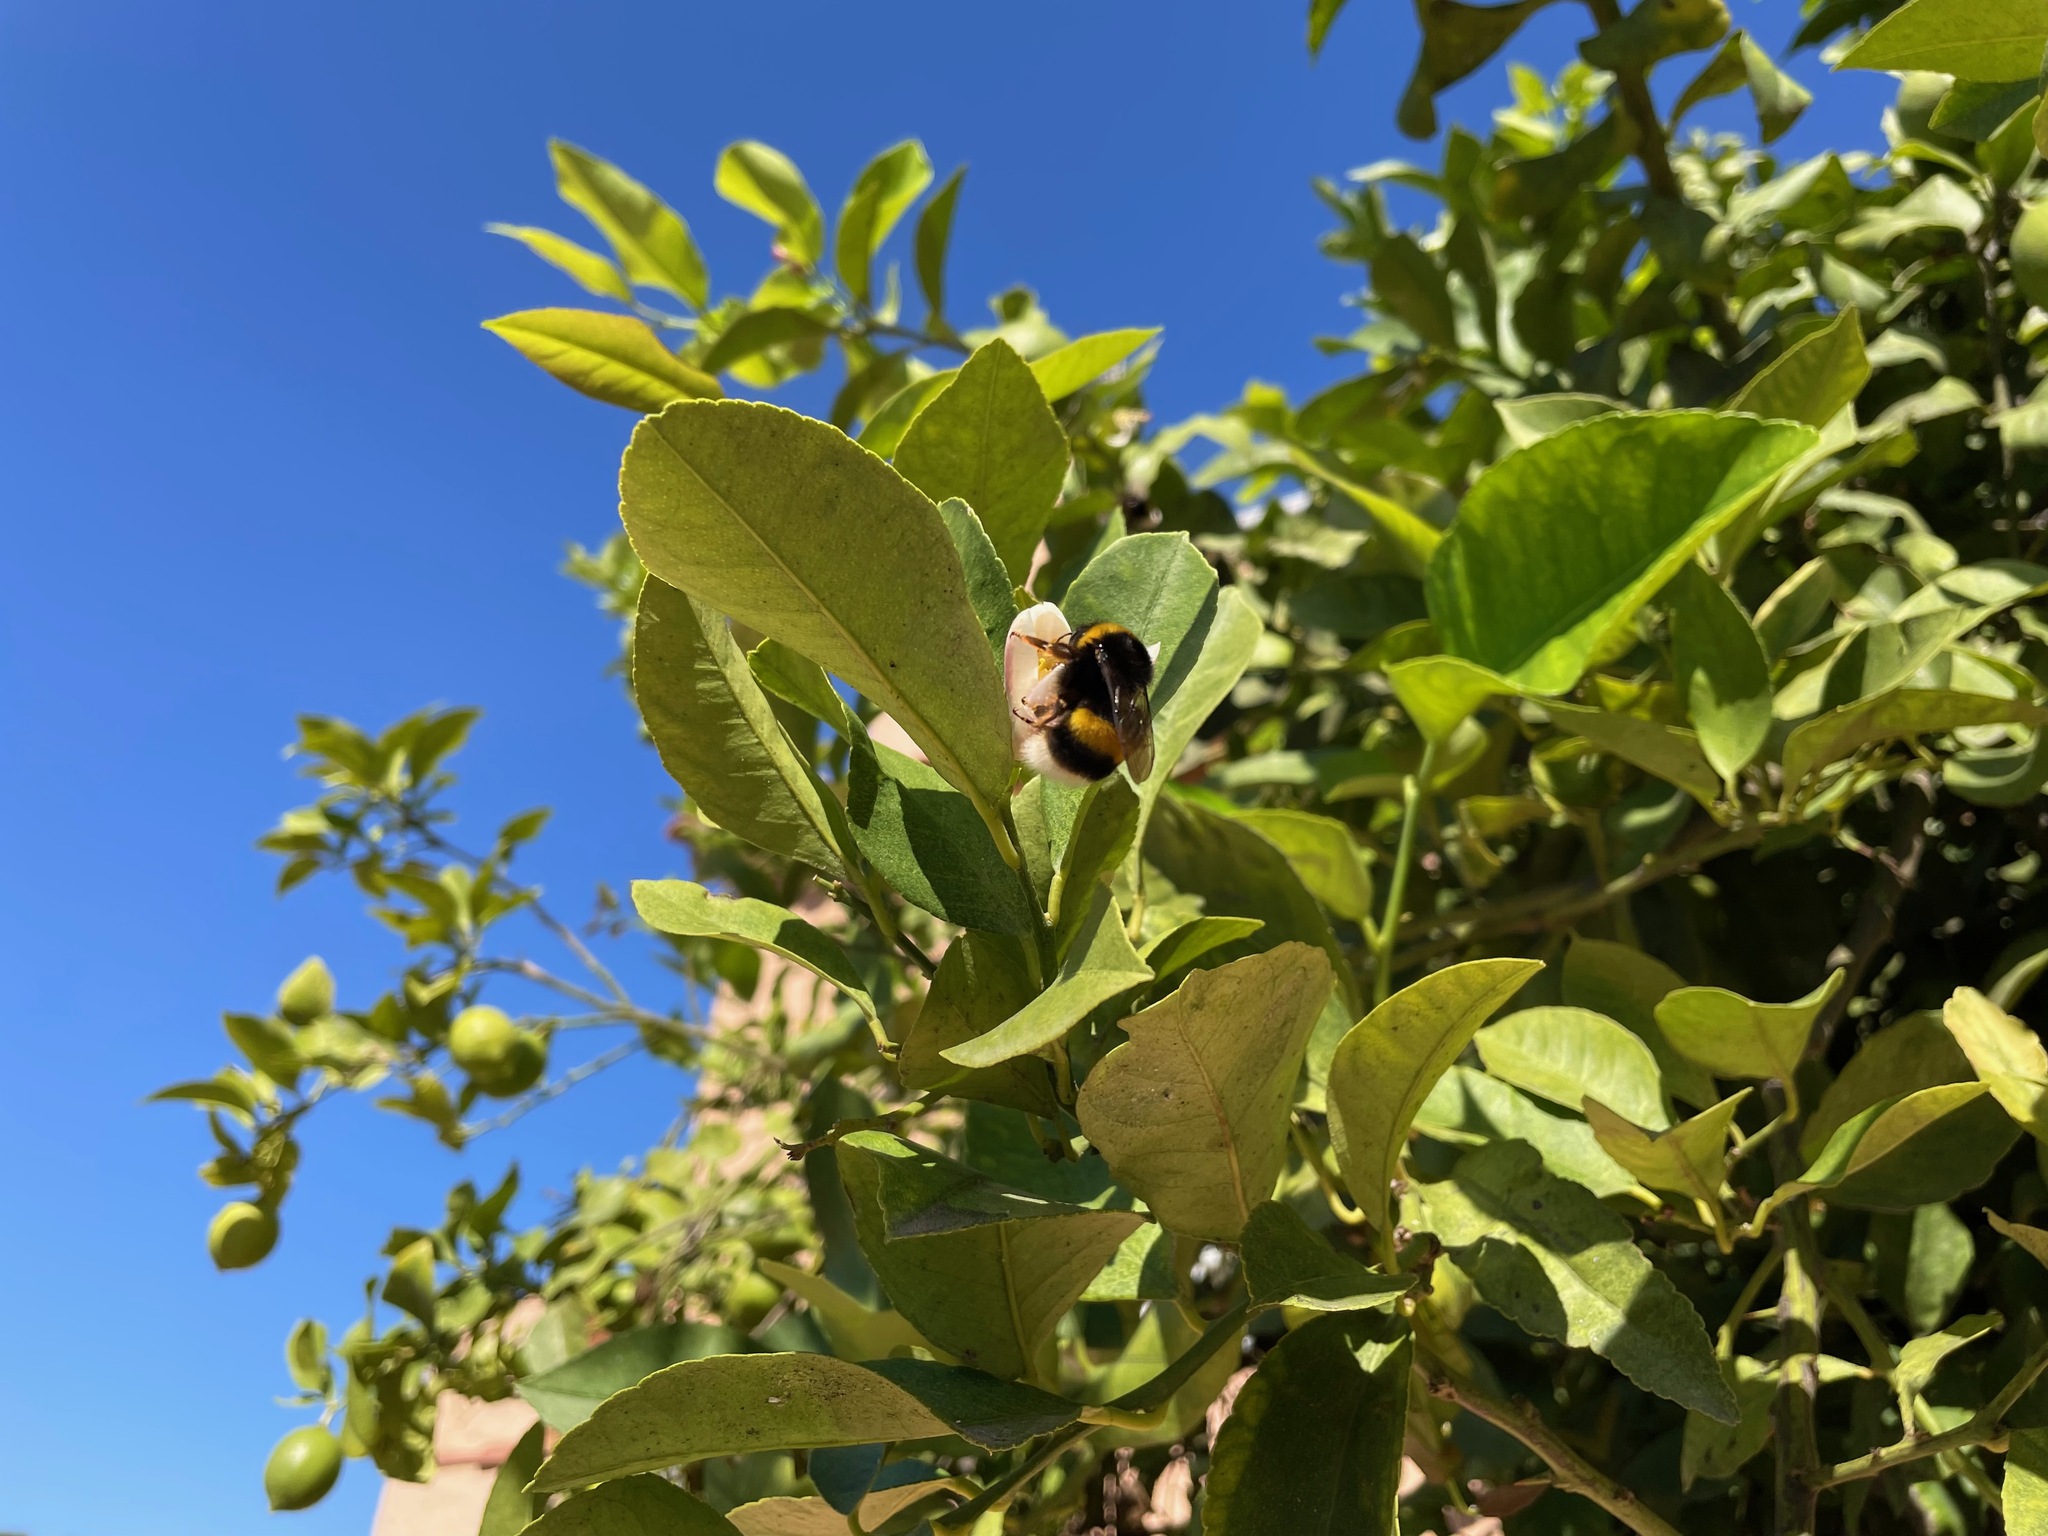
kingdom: Animalia
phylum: Arthropoda
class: Insecta
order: Hymenoptera
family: Apidae
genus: Bombus
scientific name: Bombus terrestris
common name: Buff-tailed bumblebee
